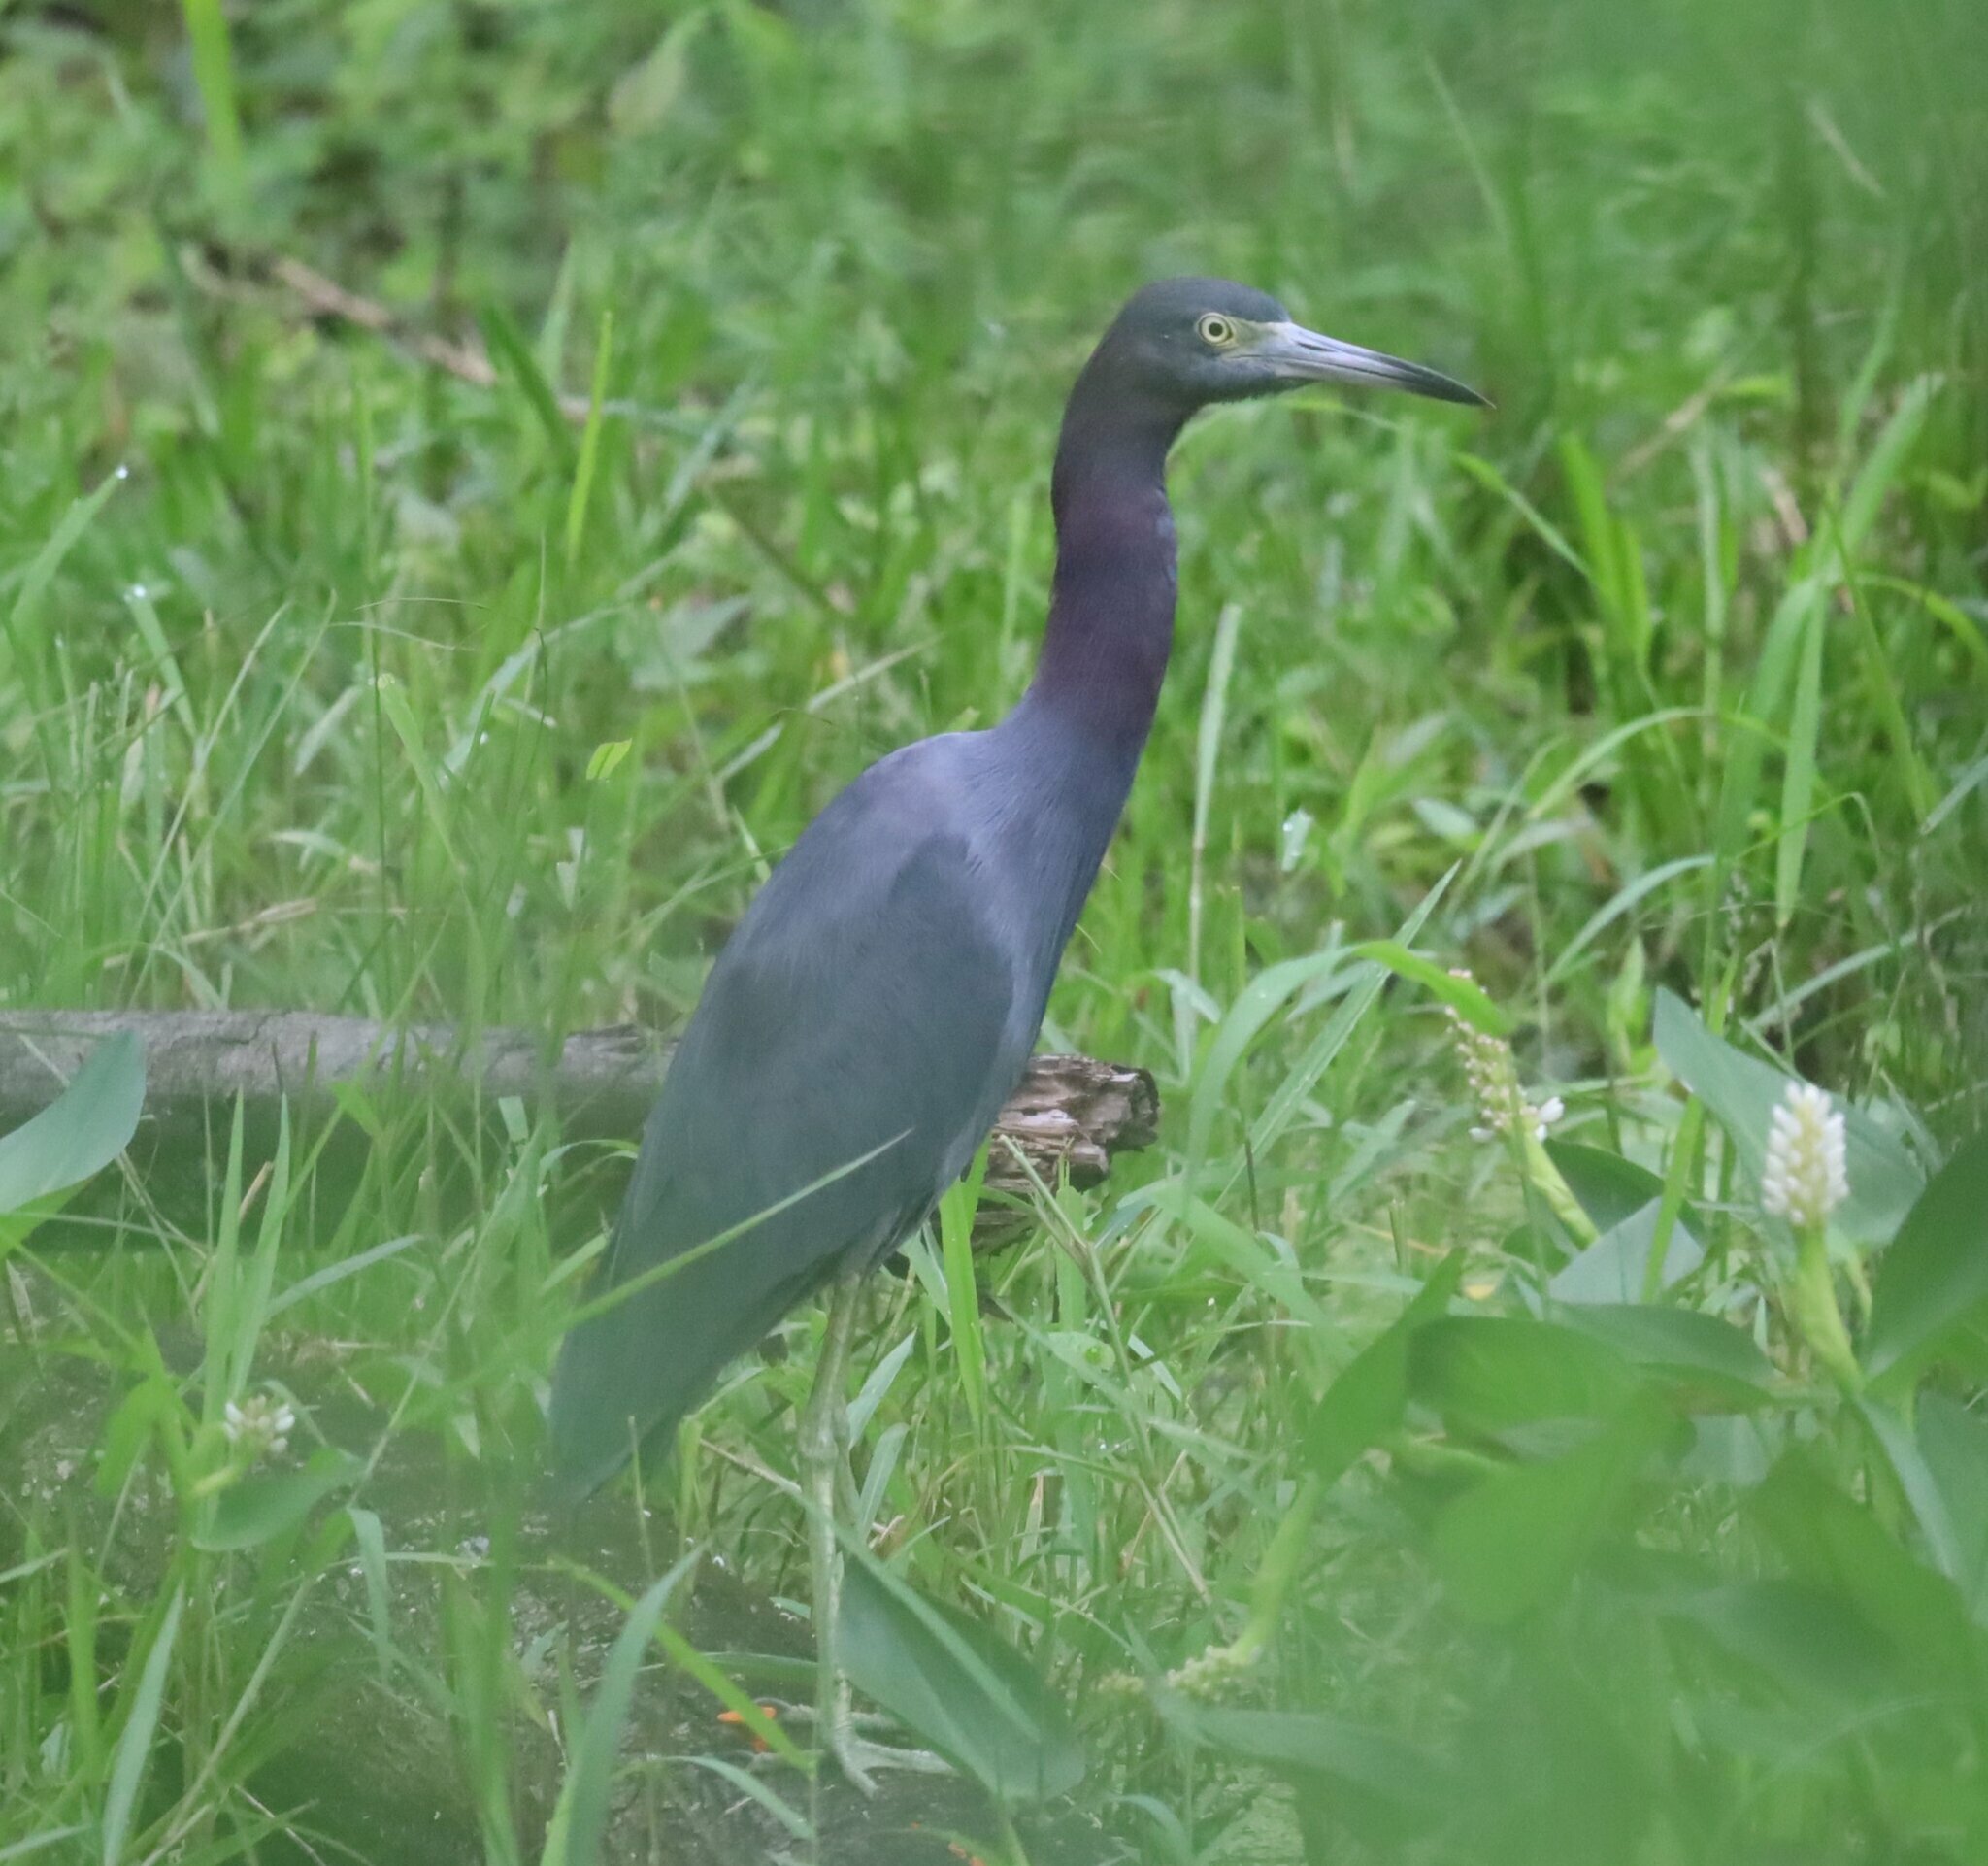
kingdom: Animalia
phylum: Chordata
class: Aves
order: Pelecaniformes
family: Ardeidae
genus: Egretta
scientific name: Egretta caerulea
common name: Little blue heron
